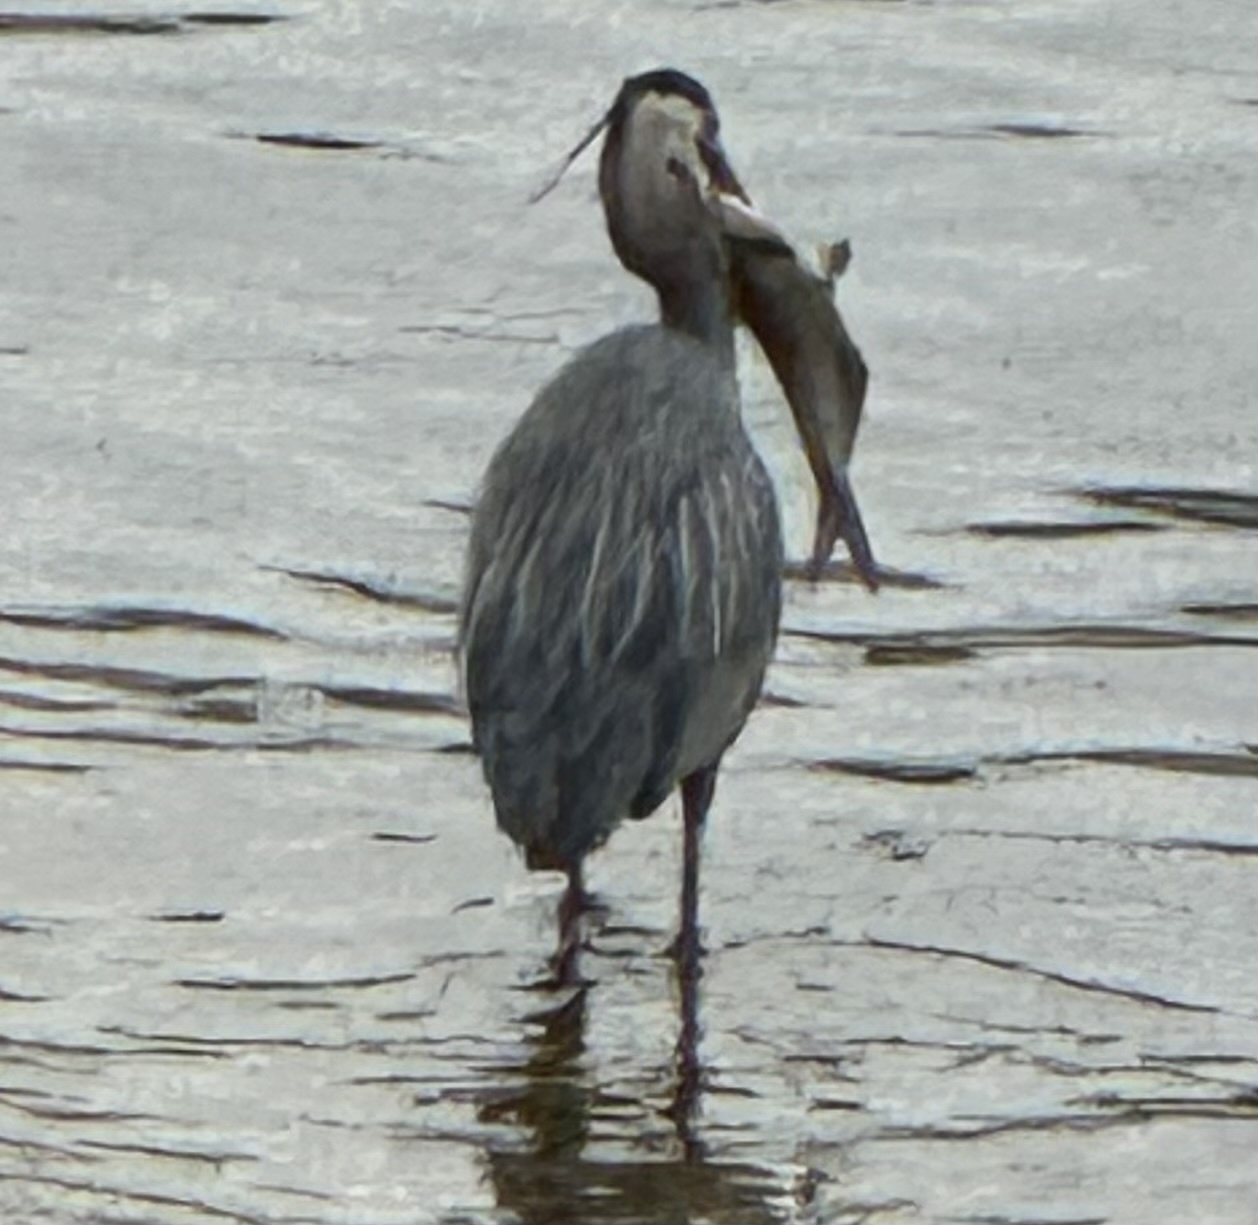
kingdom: Animalia
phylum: Chordata
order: Clupeiformes
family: Clupeidae
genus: Dorosoma
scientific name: Dorosoma cepedianum
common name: Gizzard shad
